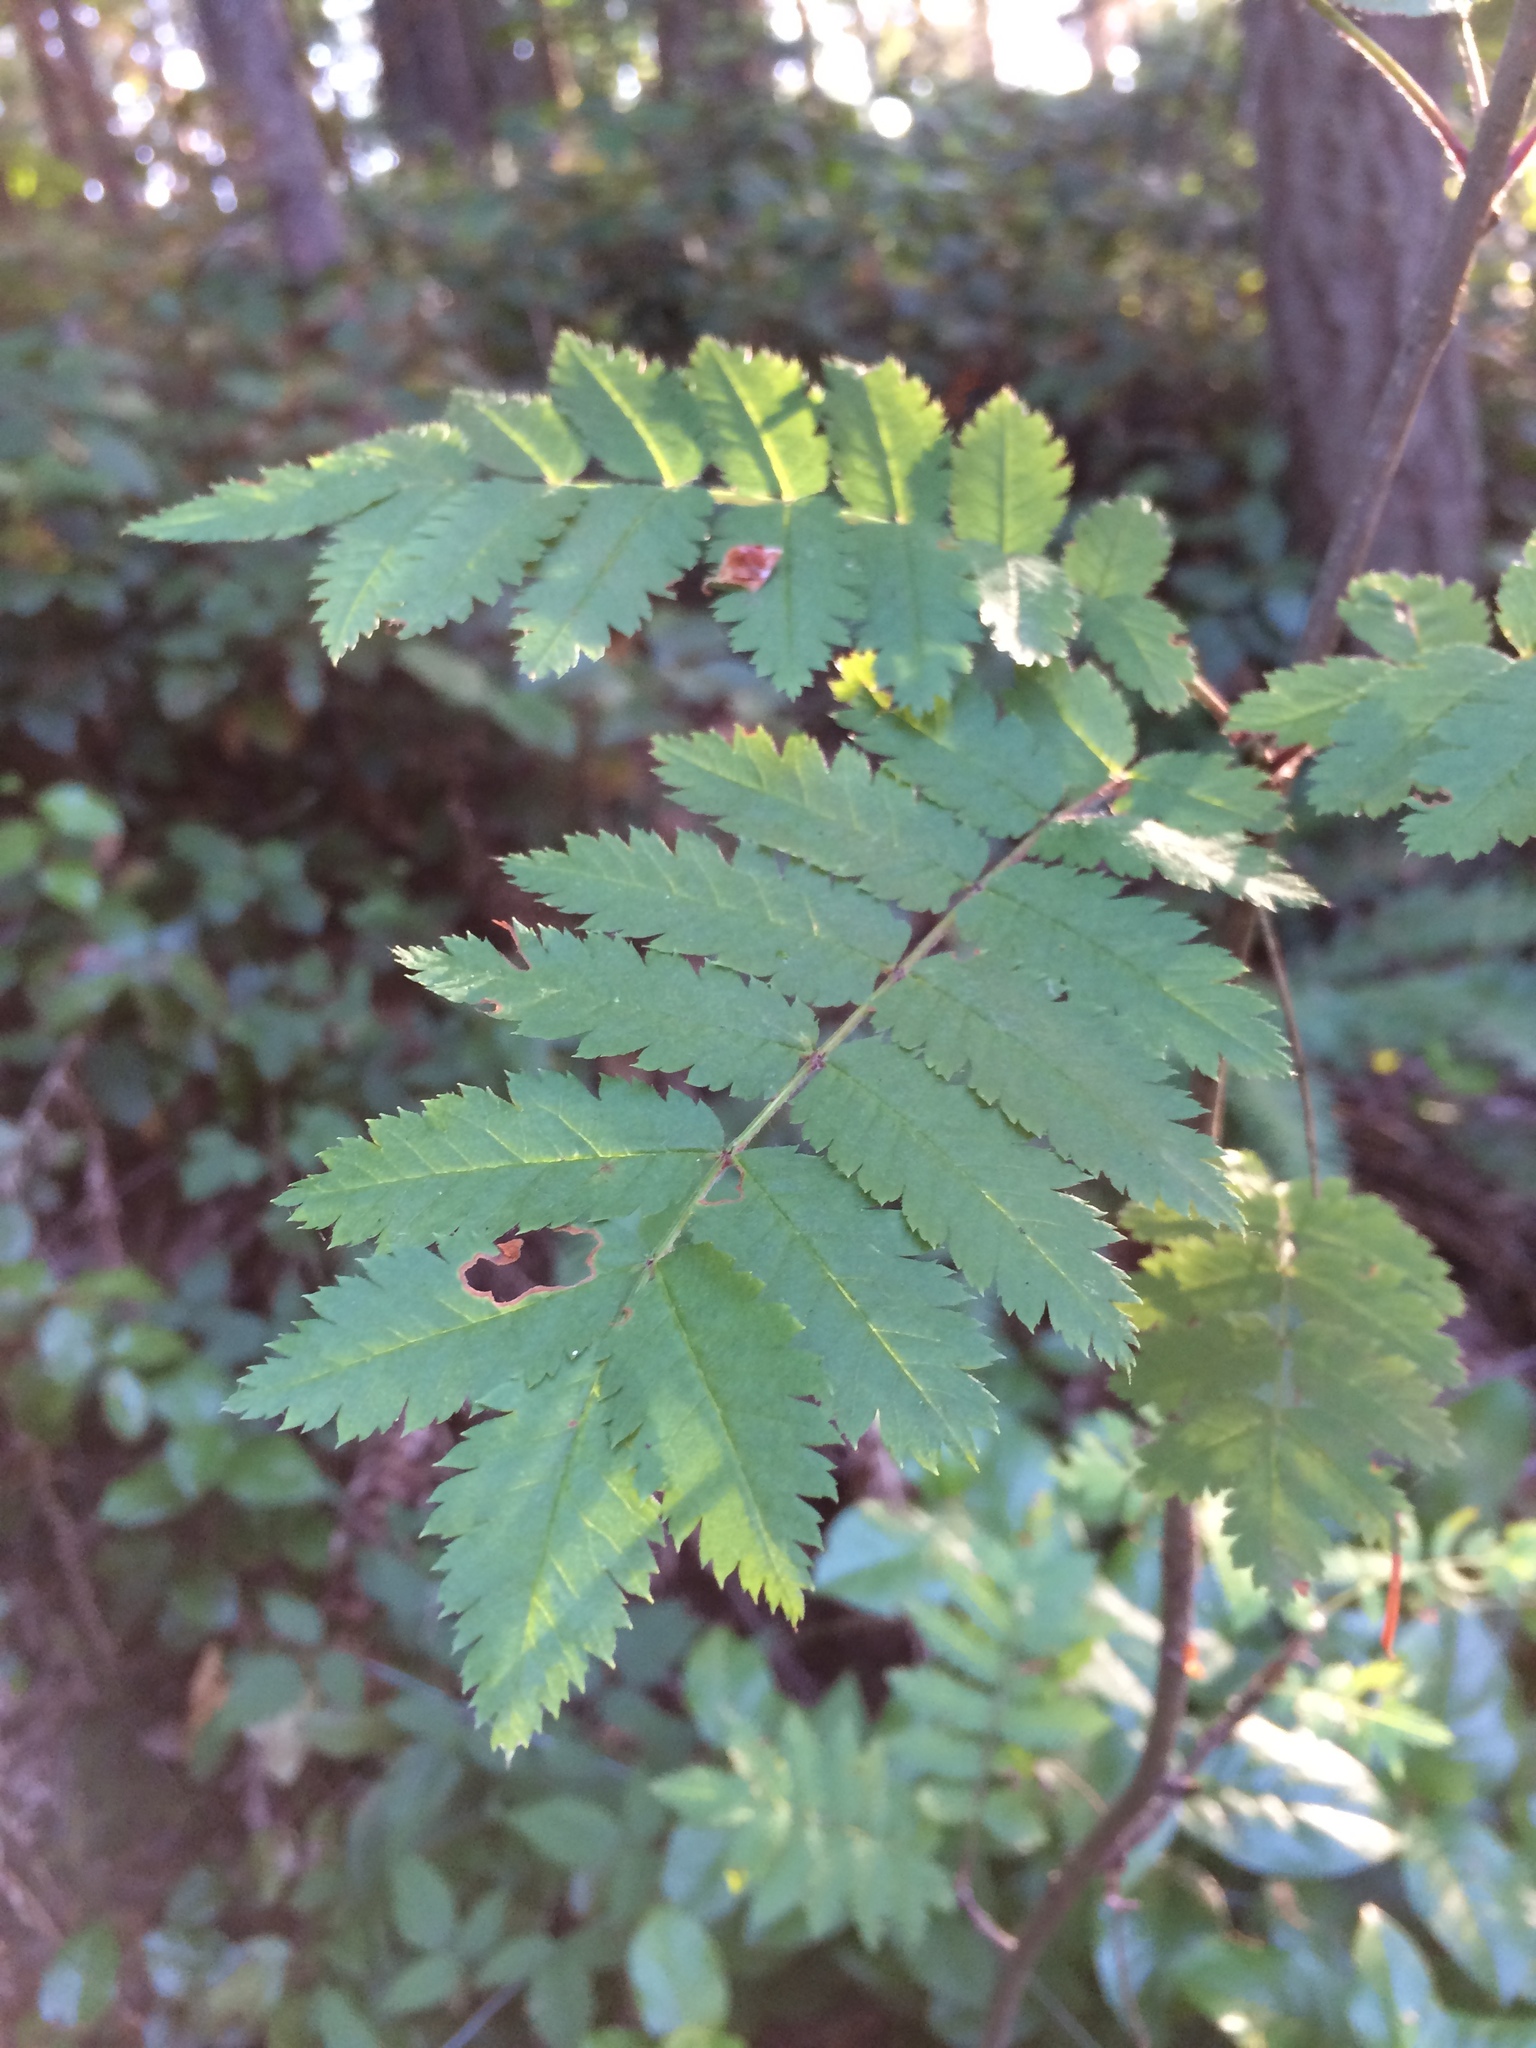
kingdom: Plantae
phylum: Tracheophyta
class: Magnoliopsida
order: Rosales
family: Rosaceae
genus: Sorbus
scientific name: Sorbus aucuparia
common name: Rowan
